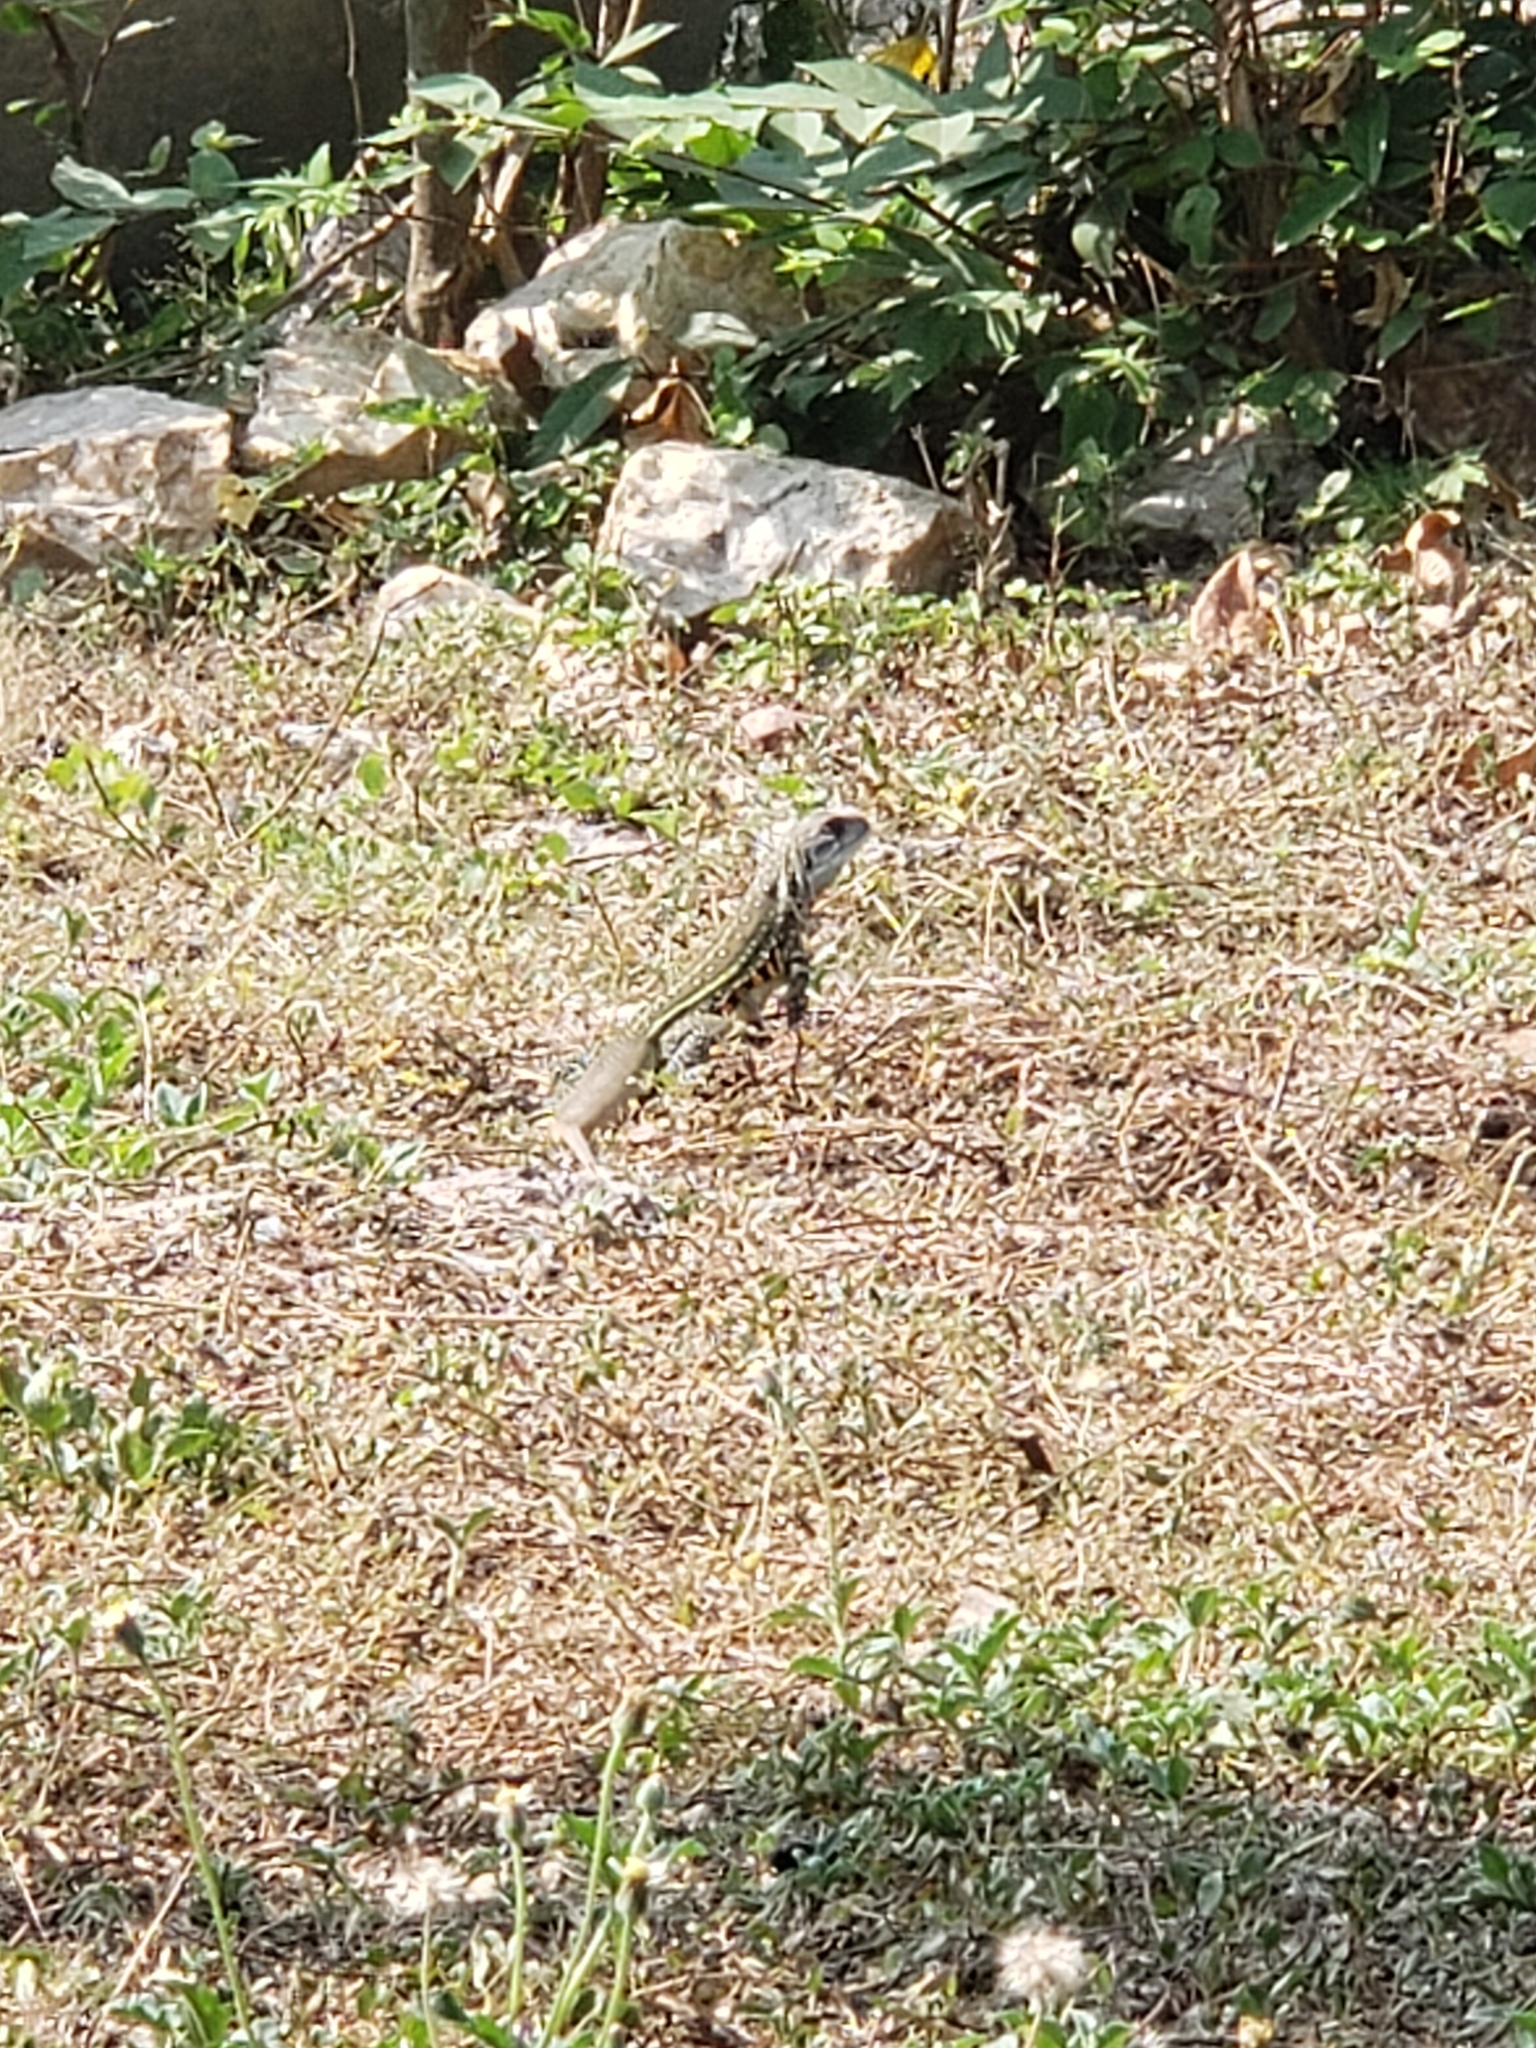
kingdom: Animalia
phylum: Chordata
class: Squamata
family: Agamidae
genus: Leiolepis
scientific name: Leiolepis belliana
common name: Common butterfly lizard
